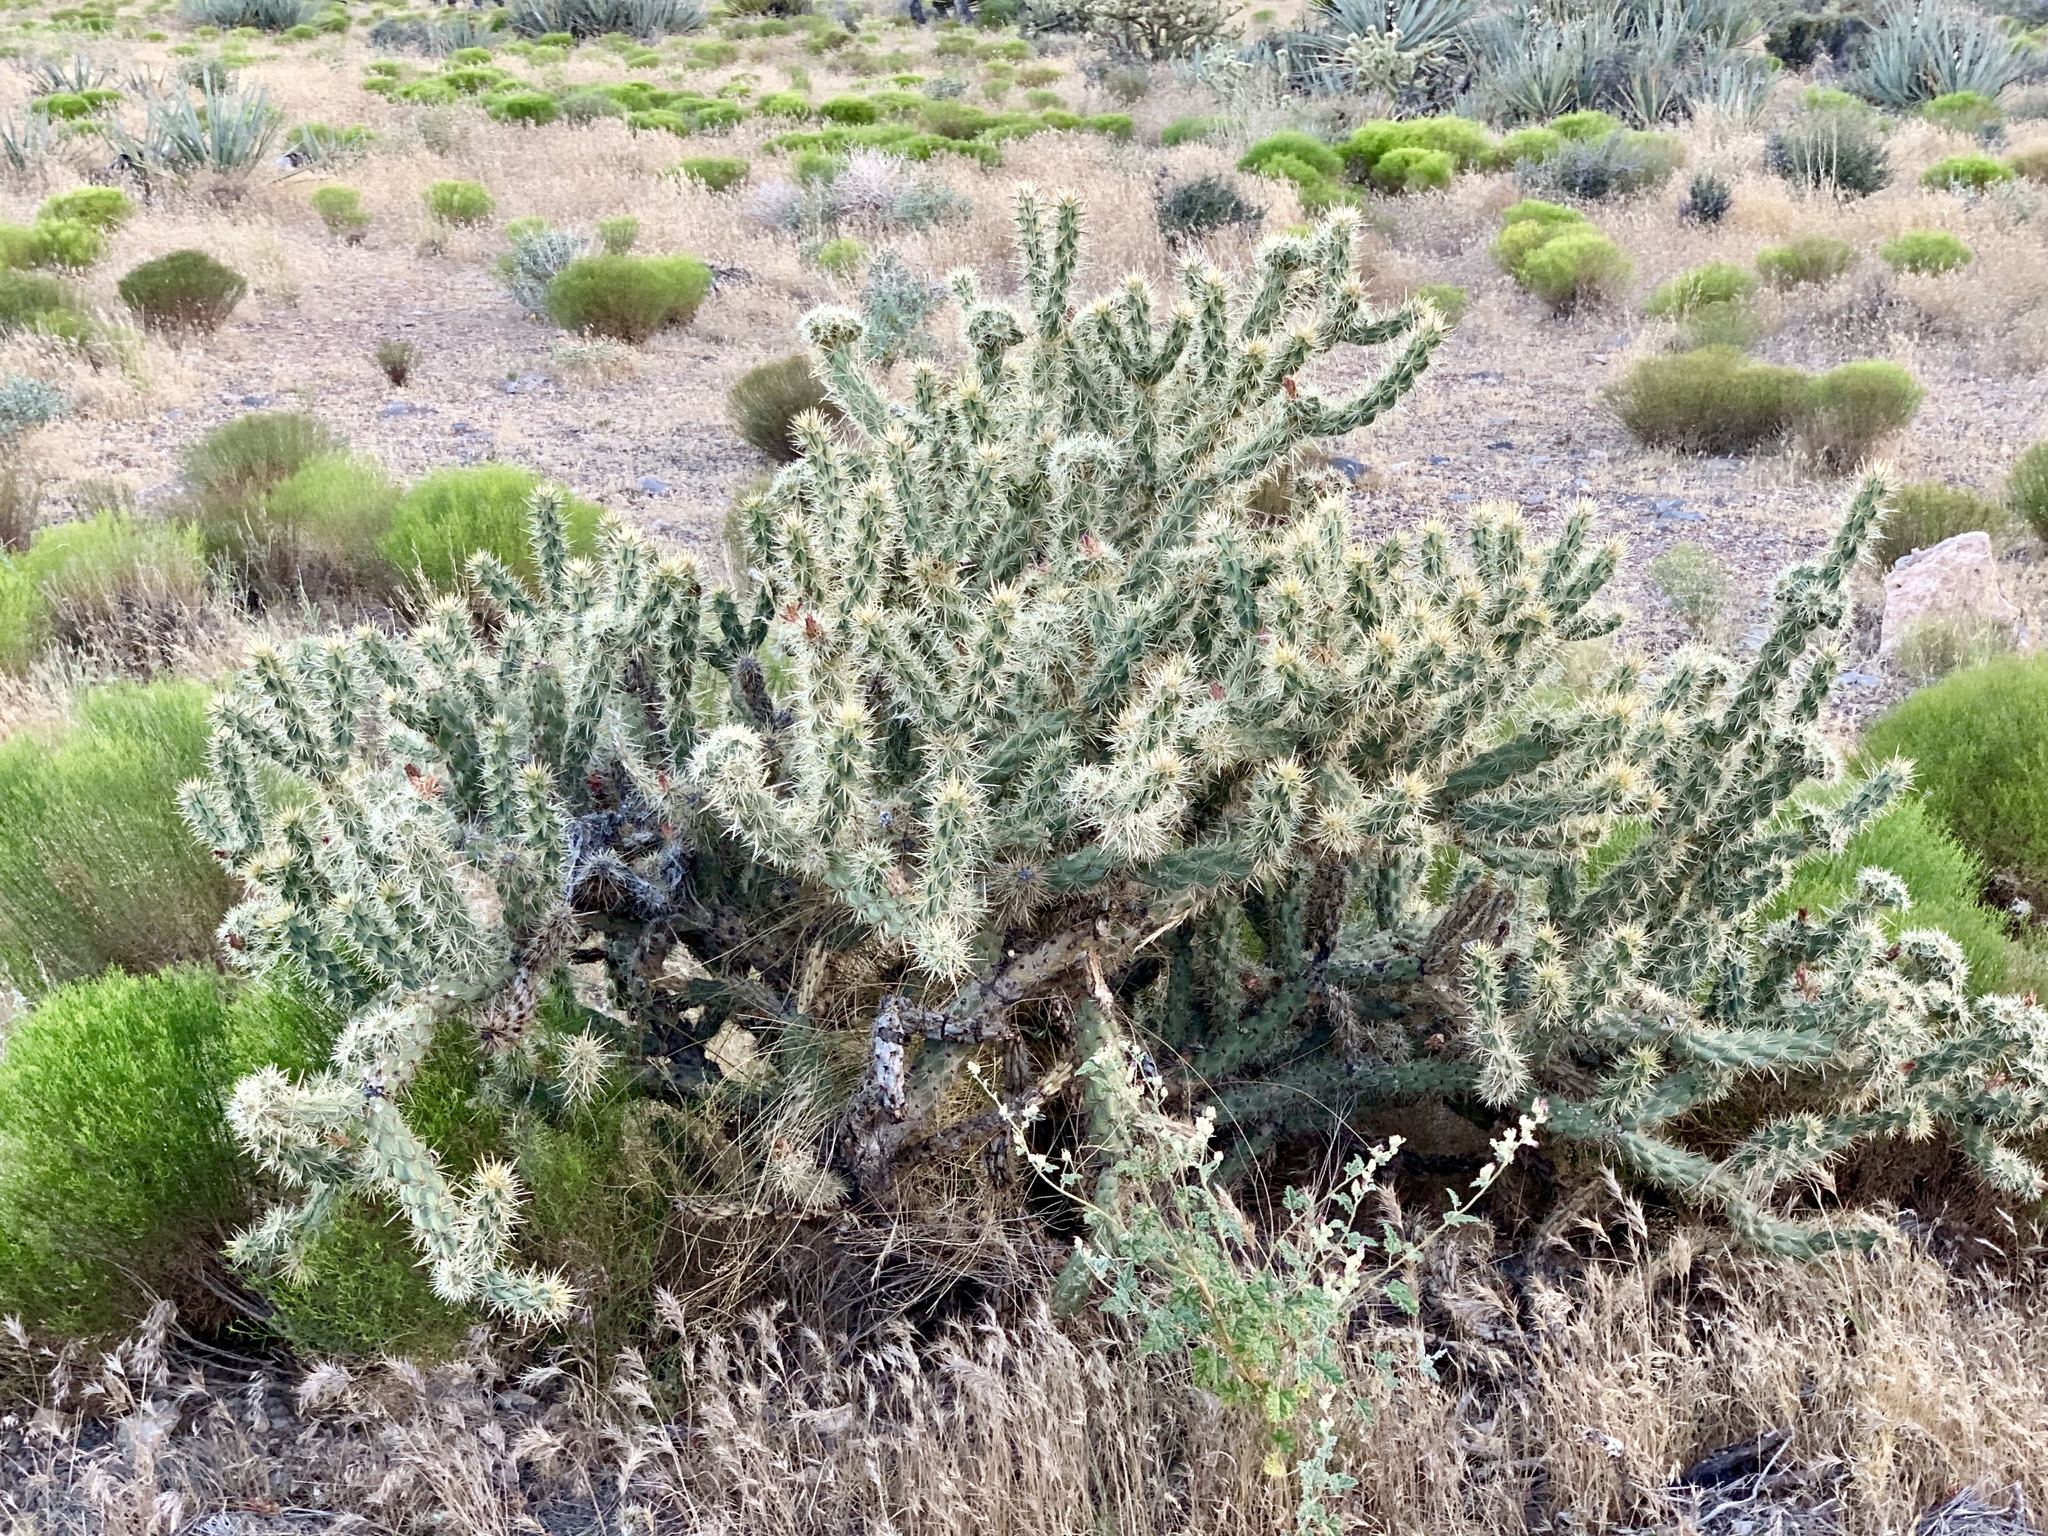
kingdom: Plantae
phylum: Tracheophyta
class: Magnoliopsida
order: Caryophyllales
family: Cactaceae
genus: Cylindropuntia
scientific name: Cylindropuntia acanthocarpa
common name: Buckhorn cholla
